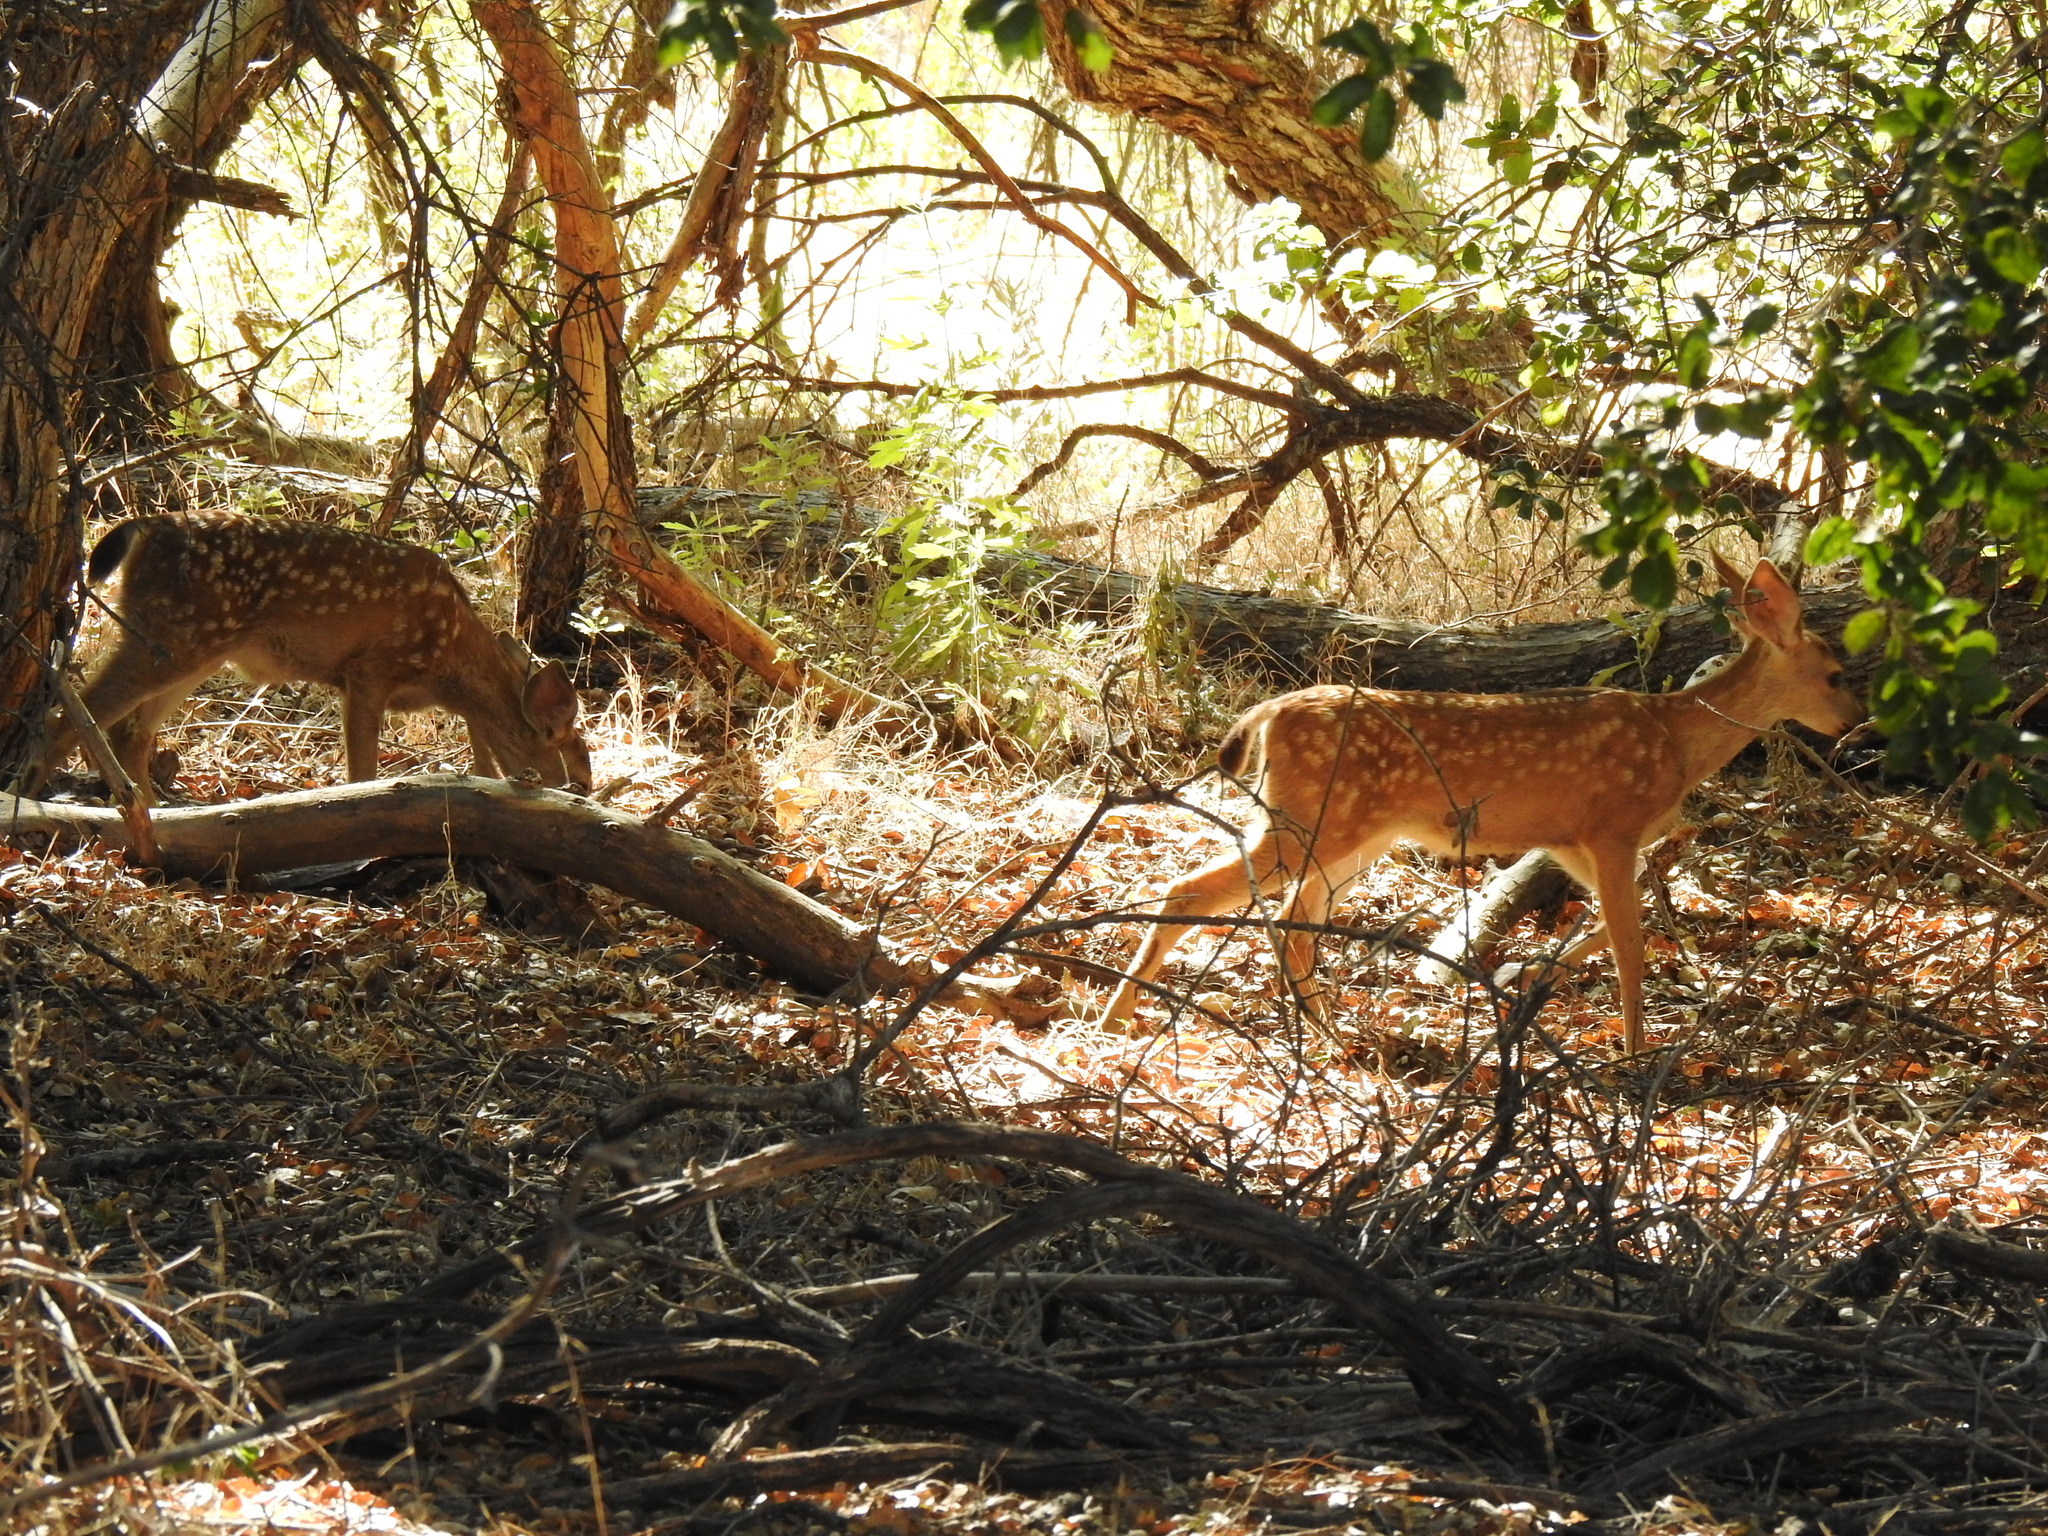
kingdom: Animalia
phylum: Chordata
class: Mammalia
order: Artiodactyla
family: Cervidae
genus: Odocoileus
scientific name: Odocoileus hemionus
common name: Mule deer
